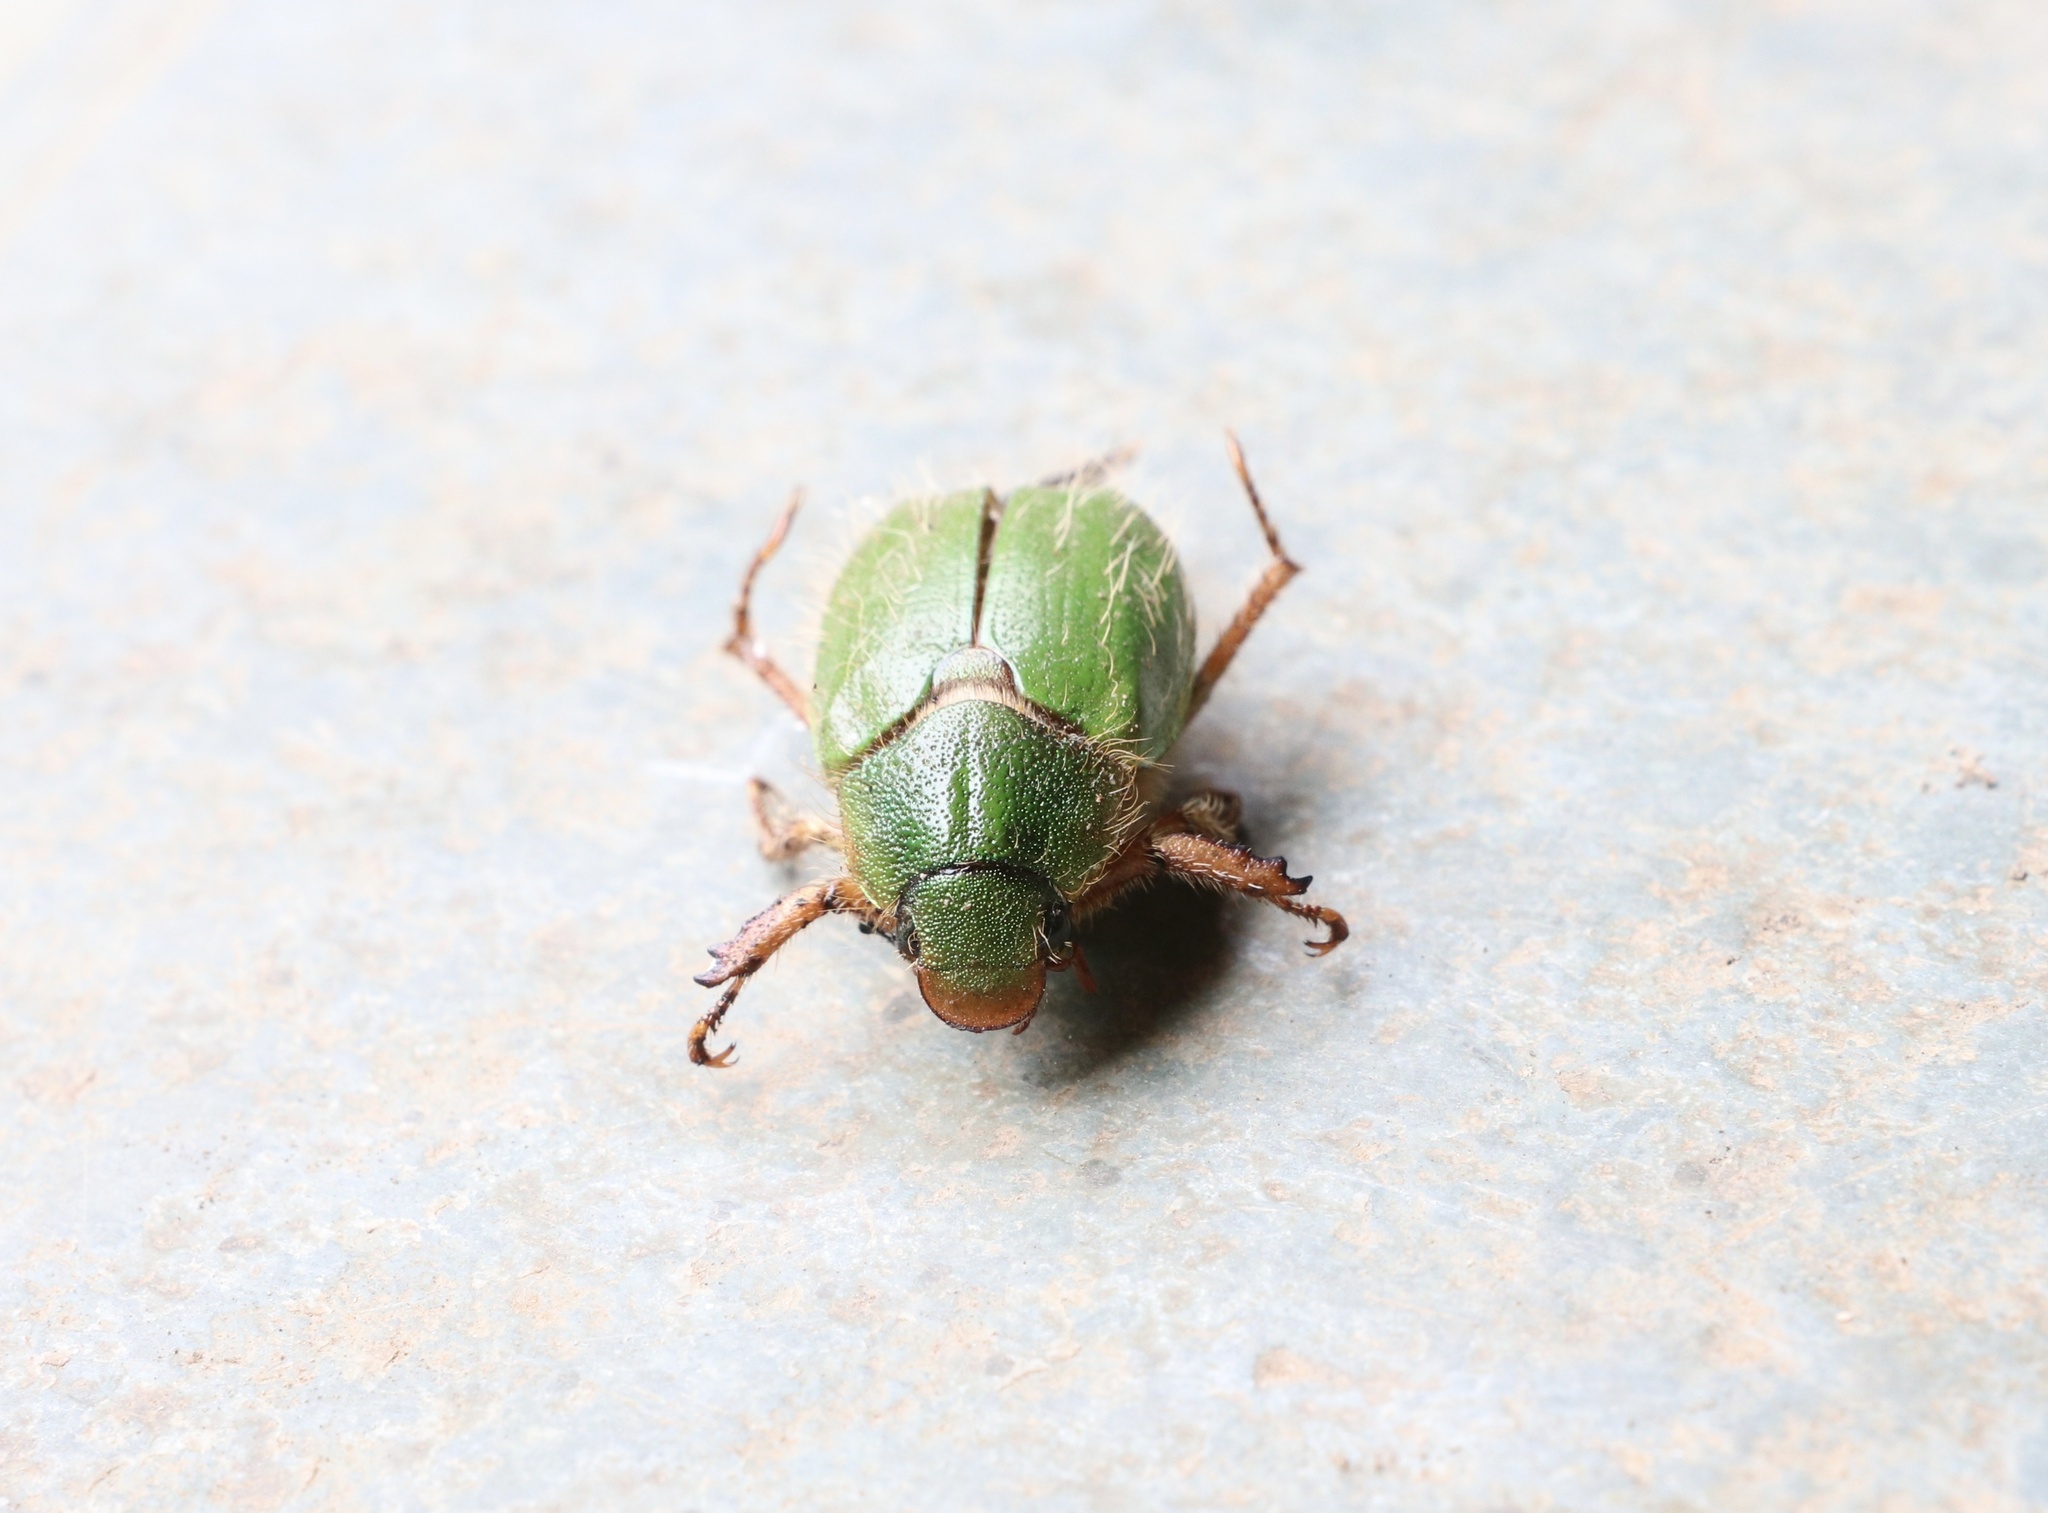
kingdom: Animalia
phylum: Arthropoda
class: Insecta
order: Coleoptera
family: Scarabaeidae
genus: Brachysternus
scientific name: Brachysternus prasinus
